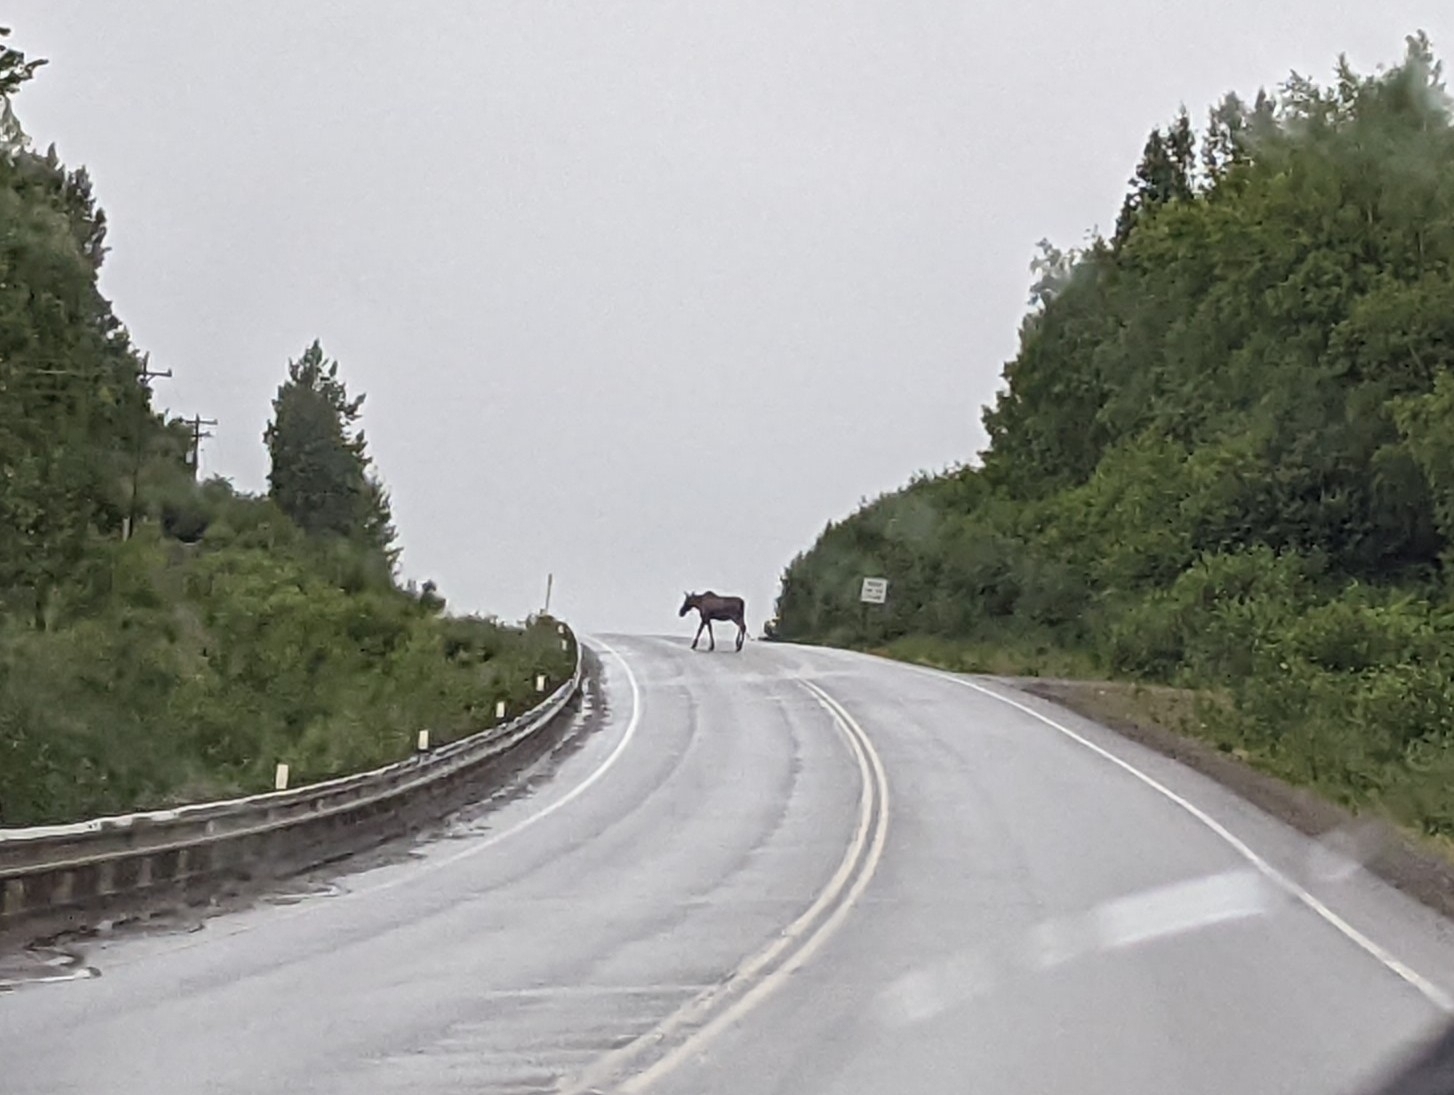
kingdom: Animalia
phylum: Chordata
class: Mammalia
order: Artiodactyla
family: Cervidae
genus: Alces
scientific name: Alces alces
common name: Moose
